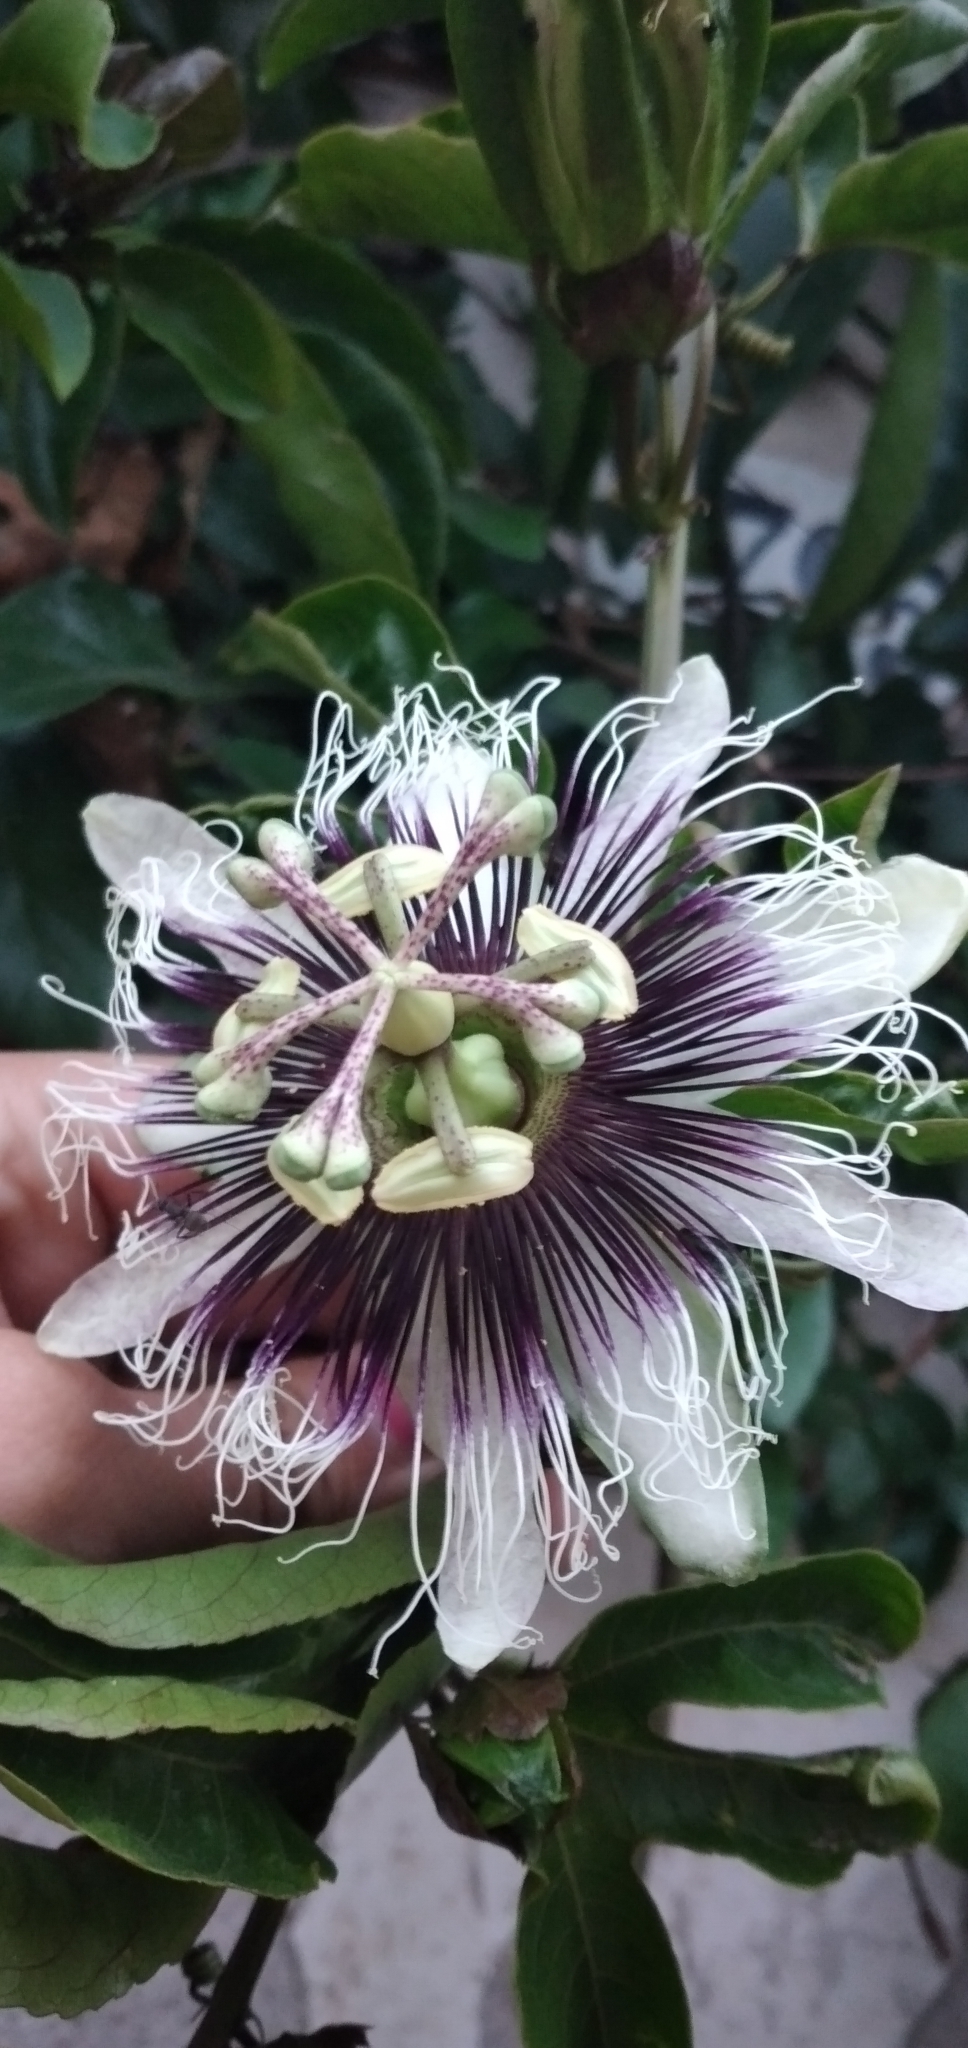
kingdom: Plantae
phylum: Tracheophyta
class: Magnoliopsida
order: Malpighiales
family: Passifloraceae
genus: Passiflora
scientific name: Passiflora edulis
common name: Purple granadilla
